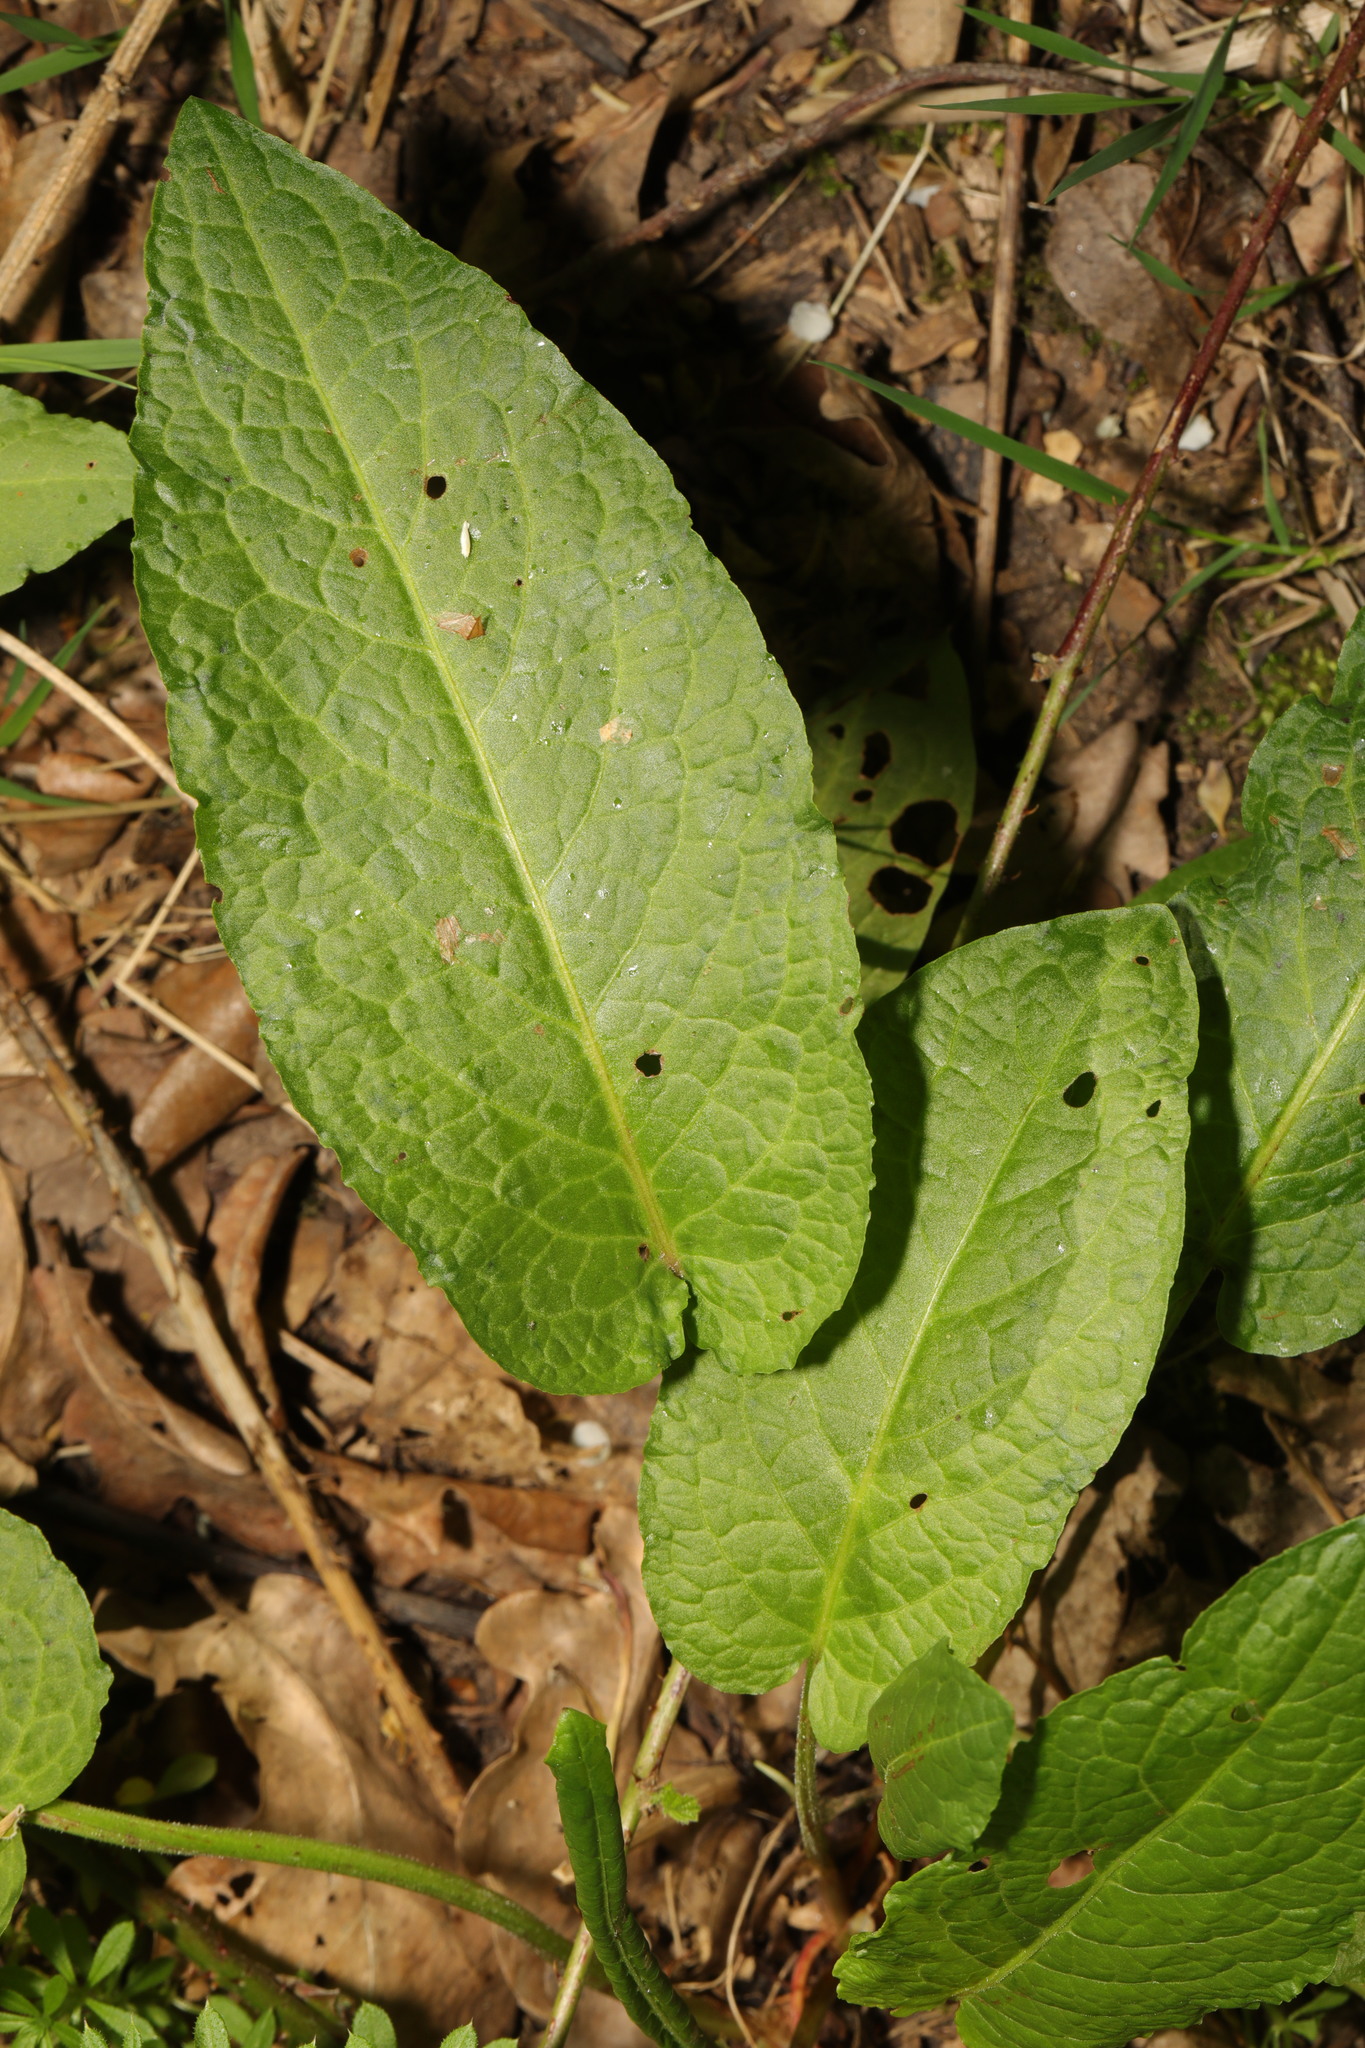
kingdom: Plantae
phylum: Tracheophyta
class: Magnoliopsida
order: Caryophyllales
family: Polygonaceae
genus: Rumex
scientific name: Rumex obtusifolius
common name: Bitter dock
